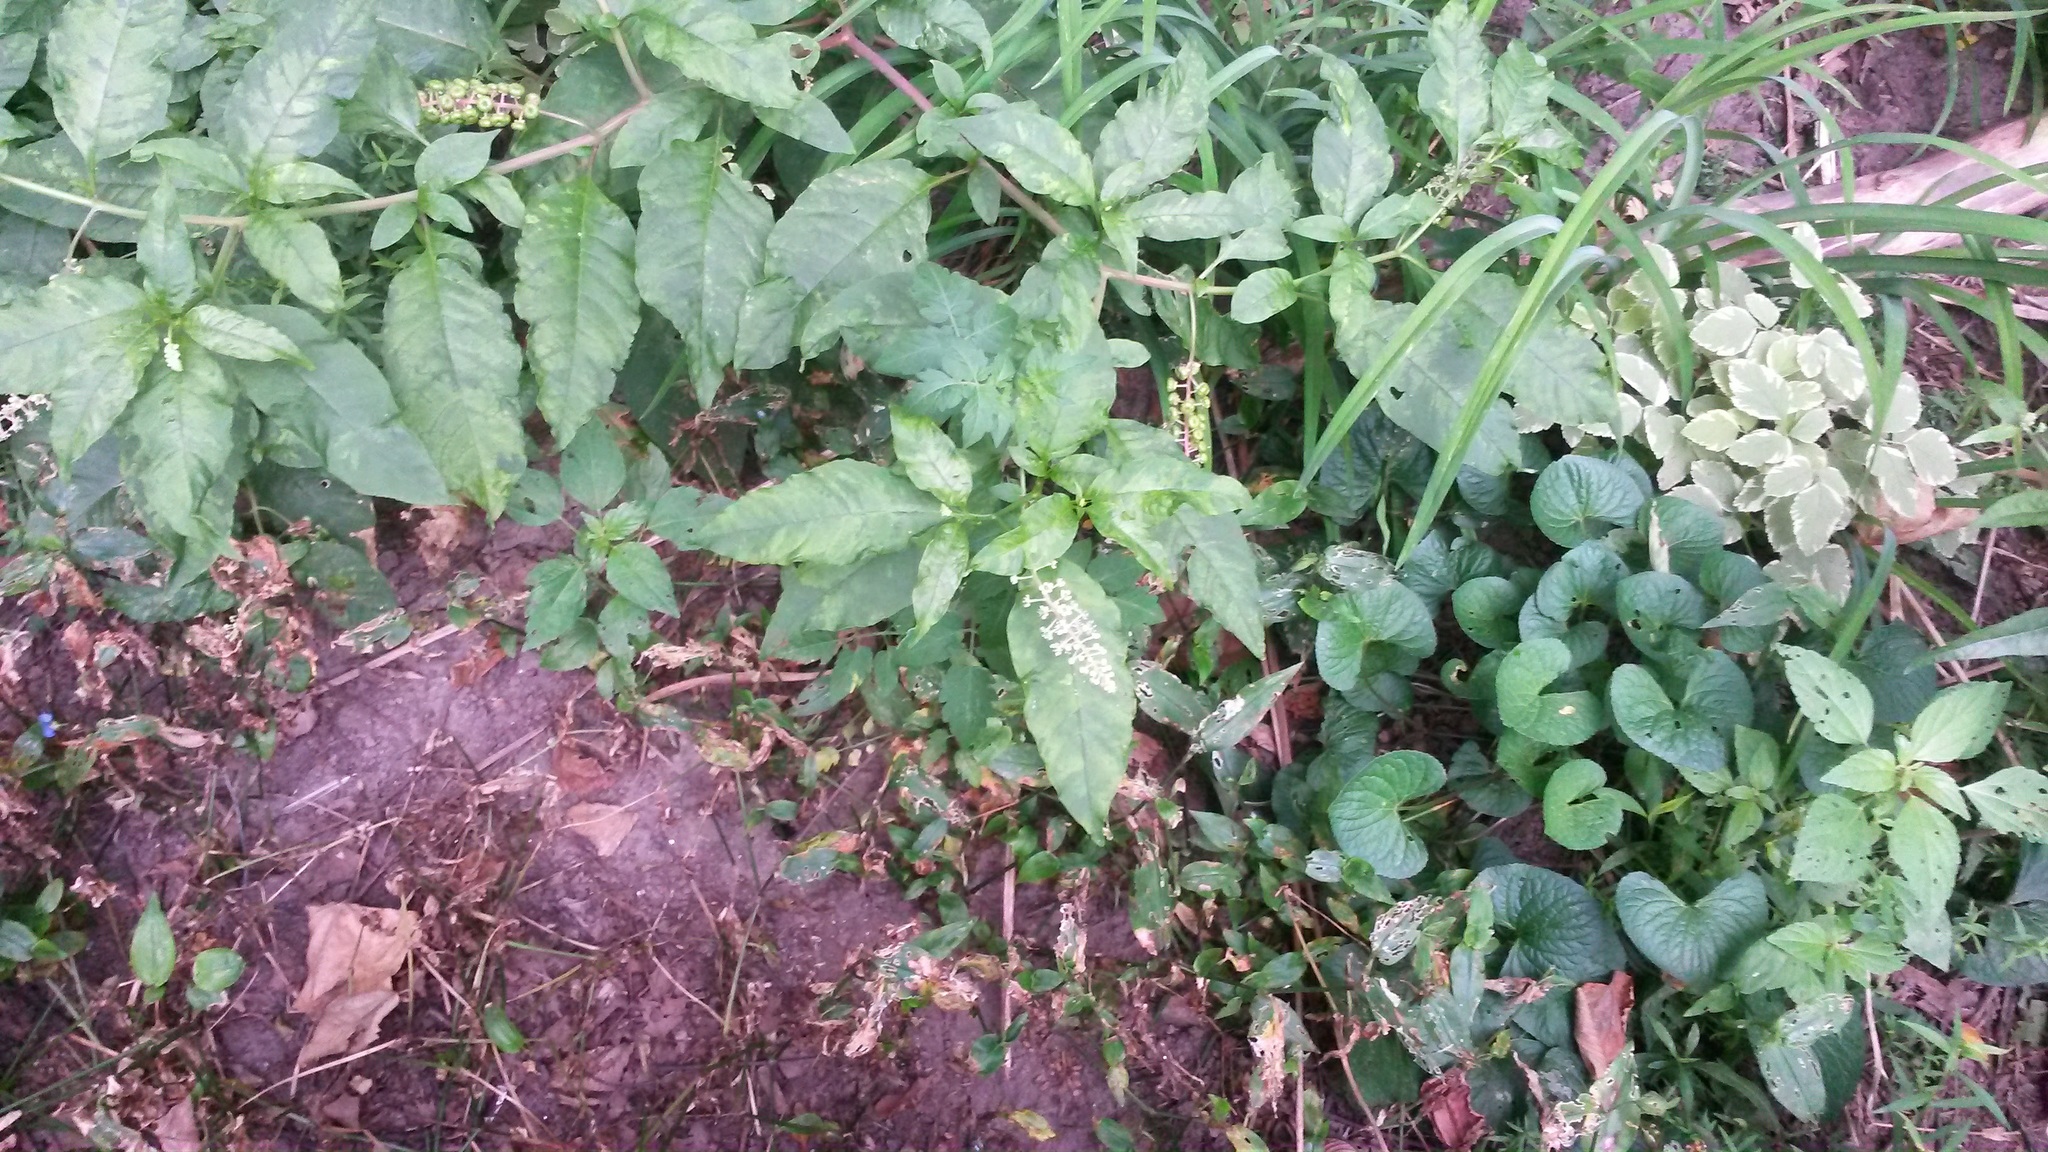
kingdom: Plantae
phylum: Tracheophyta
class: Magnoliopsida
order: Caryophyllales
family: Phytolaccaceae
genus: Phytolacca
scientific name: Phytolacca americana
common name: American pokeweed
